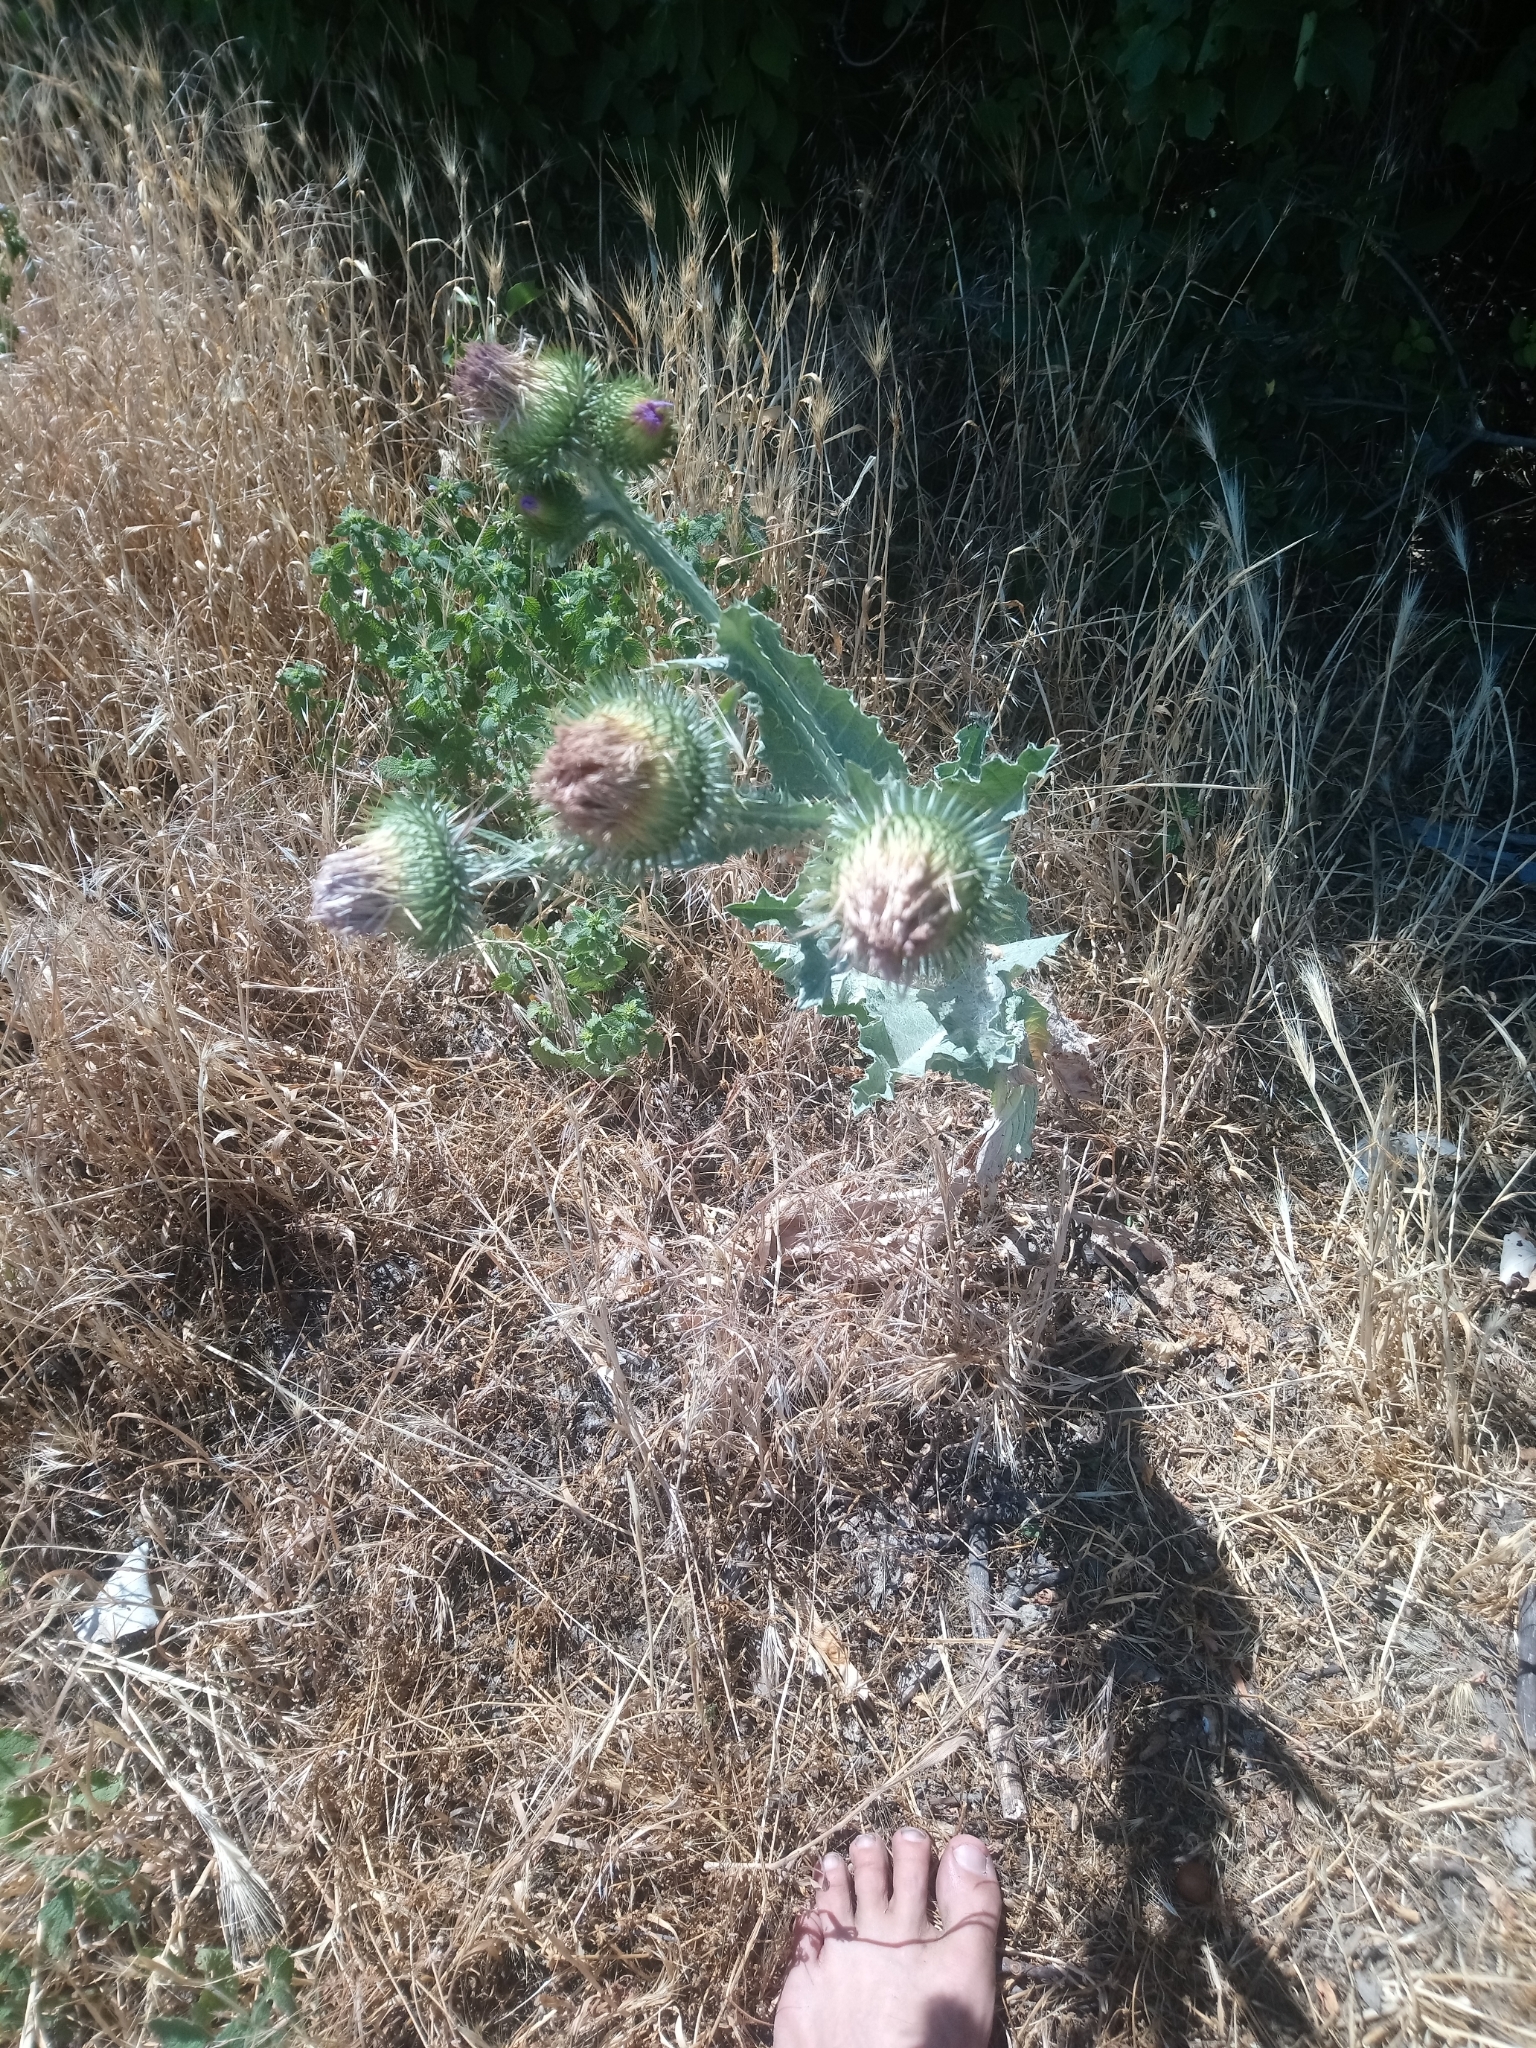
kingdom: Plantae
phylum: Tracheophyta
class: Magnoliopsida
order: Asterales
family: Asteraceae
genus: Onopordum
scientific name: Onopordum acanthium
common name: Scotch thistle
